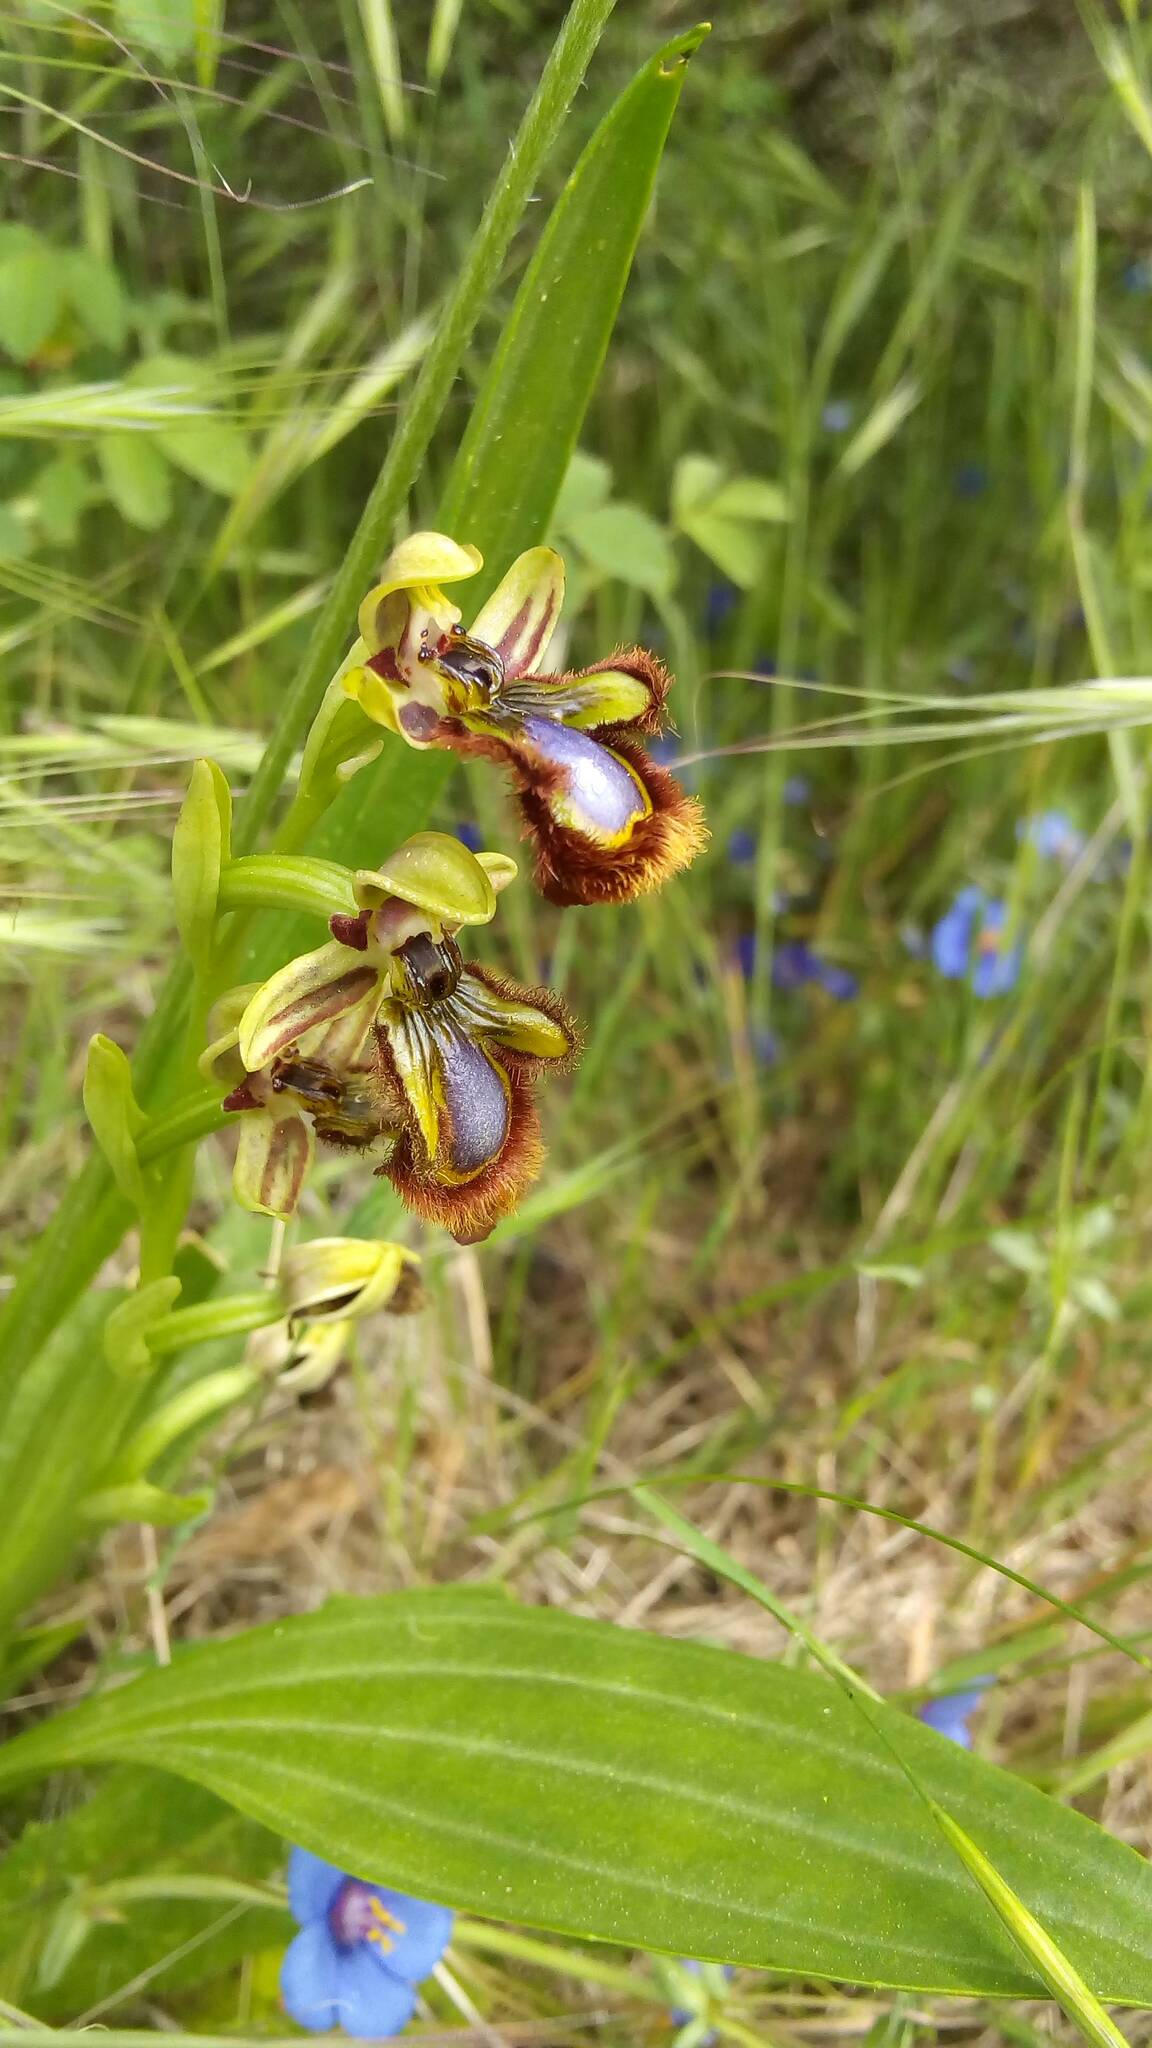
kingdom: Plantae
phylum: Tracheophyta
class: Liliopsida
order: Asparagales
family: Orchidaceae
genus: Ophrys
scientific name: Ophrys speculum
